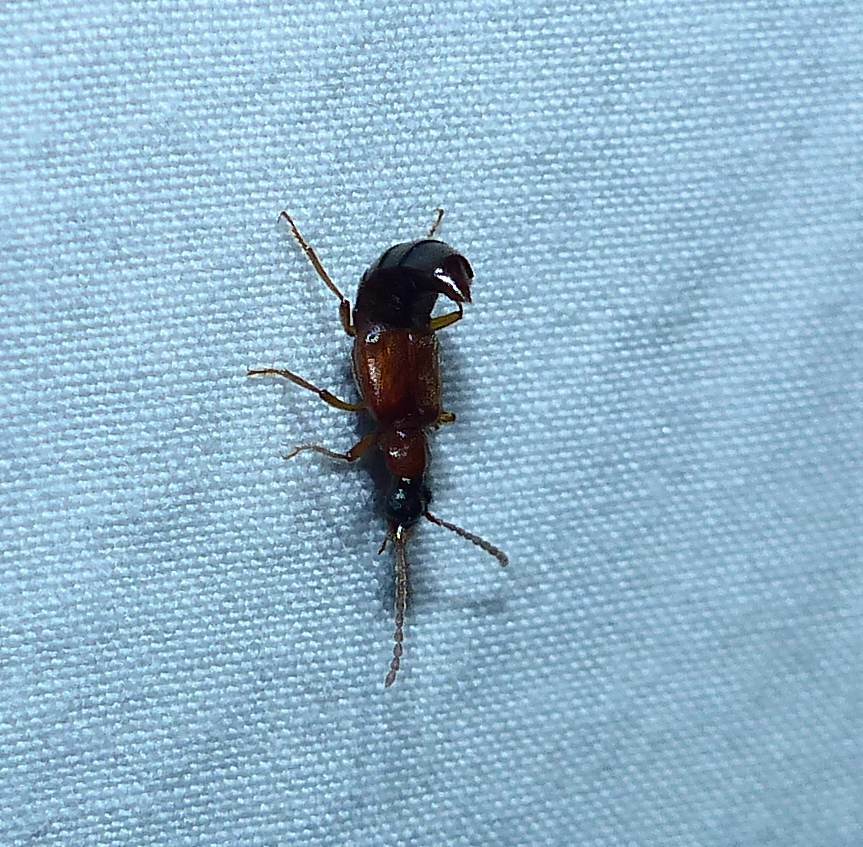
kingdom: Animalia
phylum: Arthropoda
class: Insecta
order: Coleoptera
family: Staphylinidae
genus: Deleaster
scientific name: Deleaster dichrous
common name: Rove beetle
